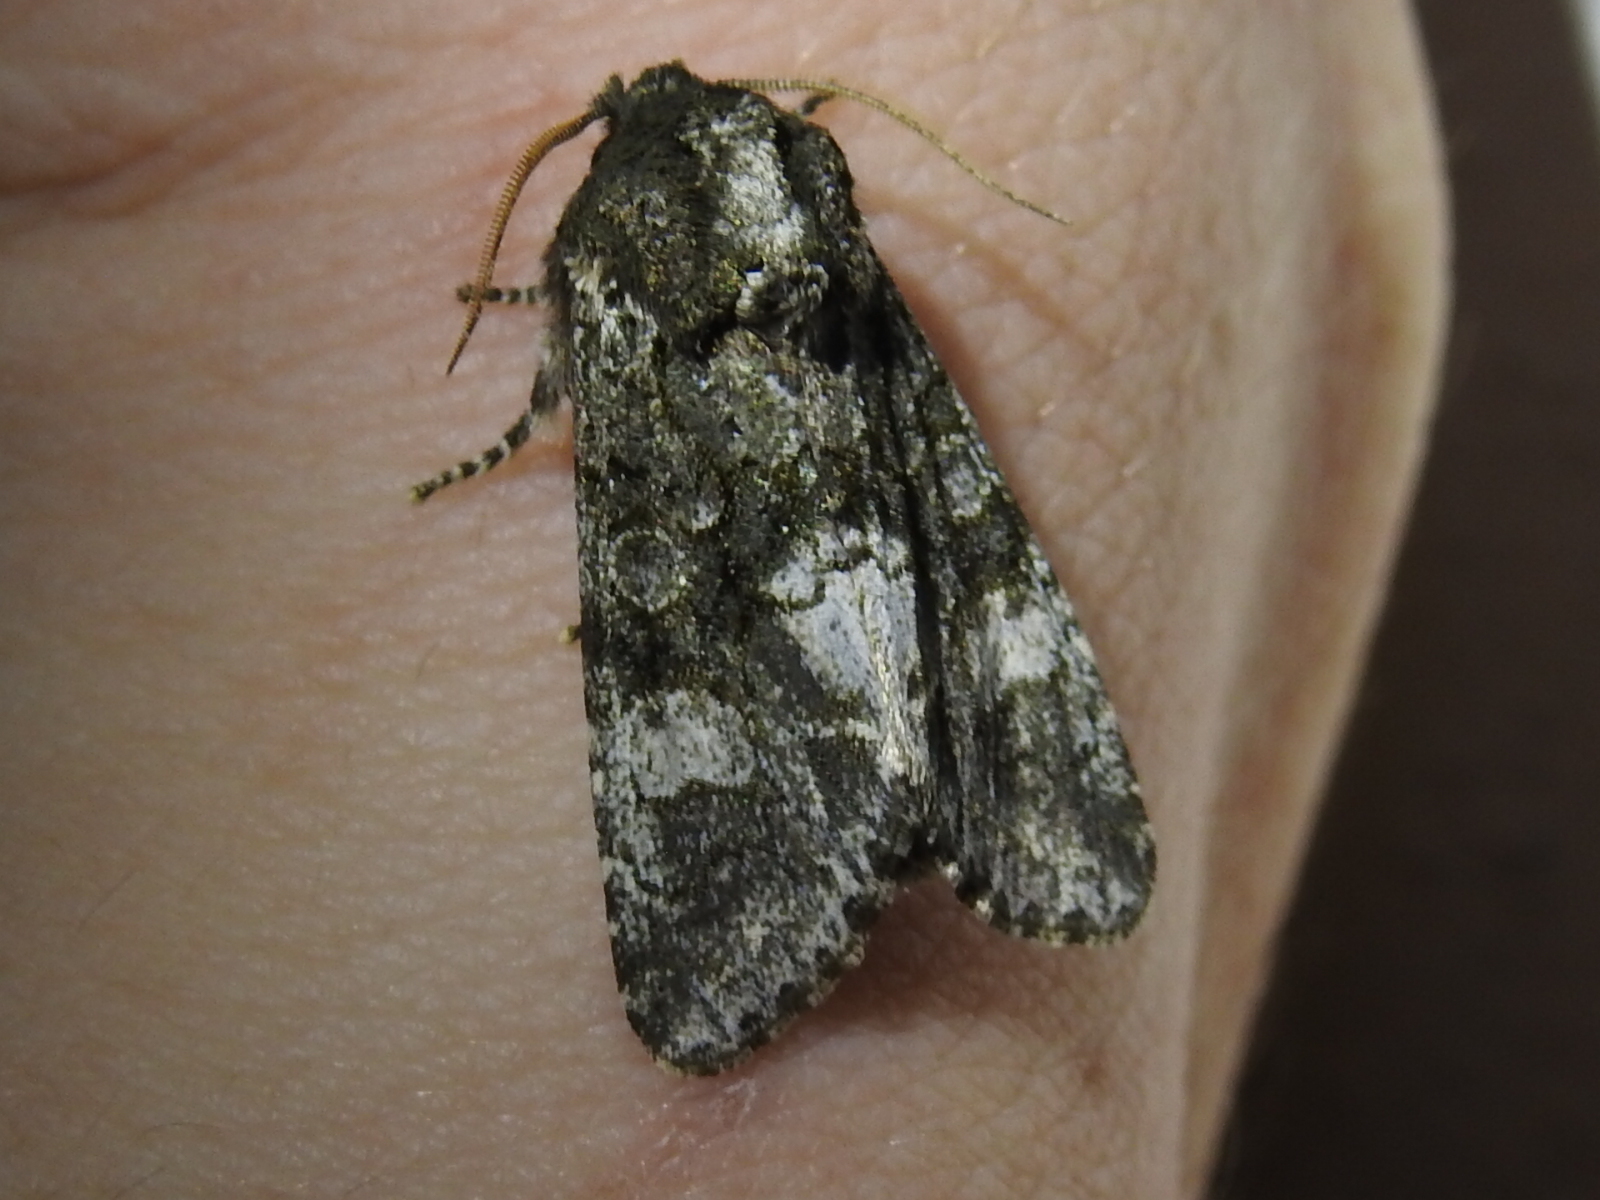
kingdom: Animalia
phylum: Arthropoda
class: Insecta
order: Lepidoptera
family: Noctuidae
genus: Psaphida
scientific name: Psaphida grotei
